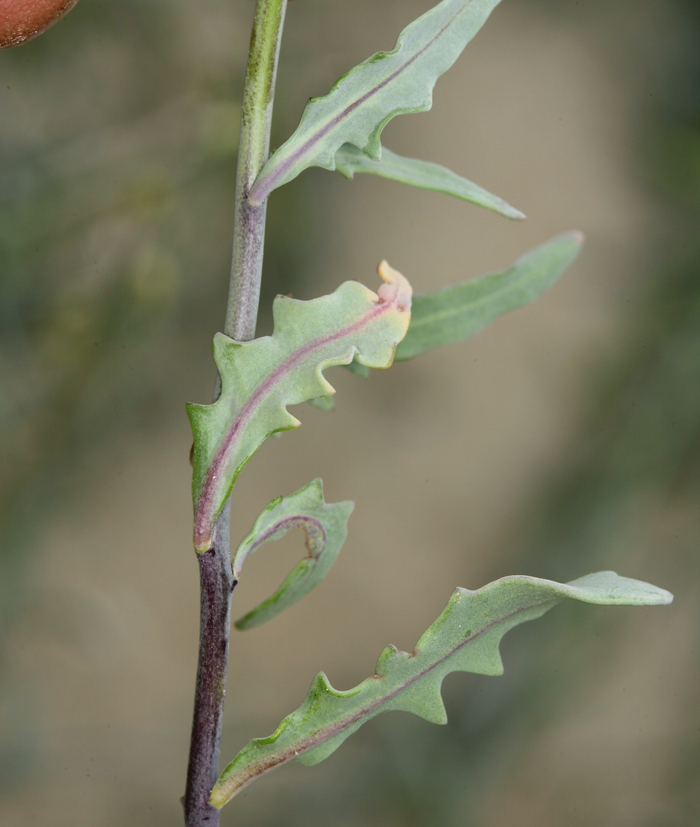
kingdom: Plantae
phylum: Tracheophyta
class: Magnoliopsida
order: Brassicales
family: Brassicaceae
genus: Streptanthus
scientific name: Streptanthus longirostris
